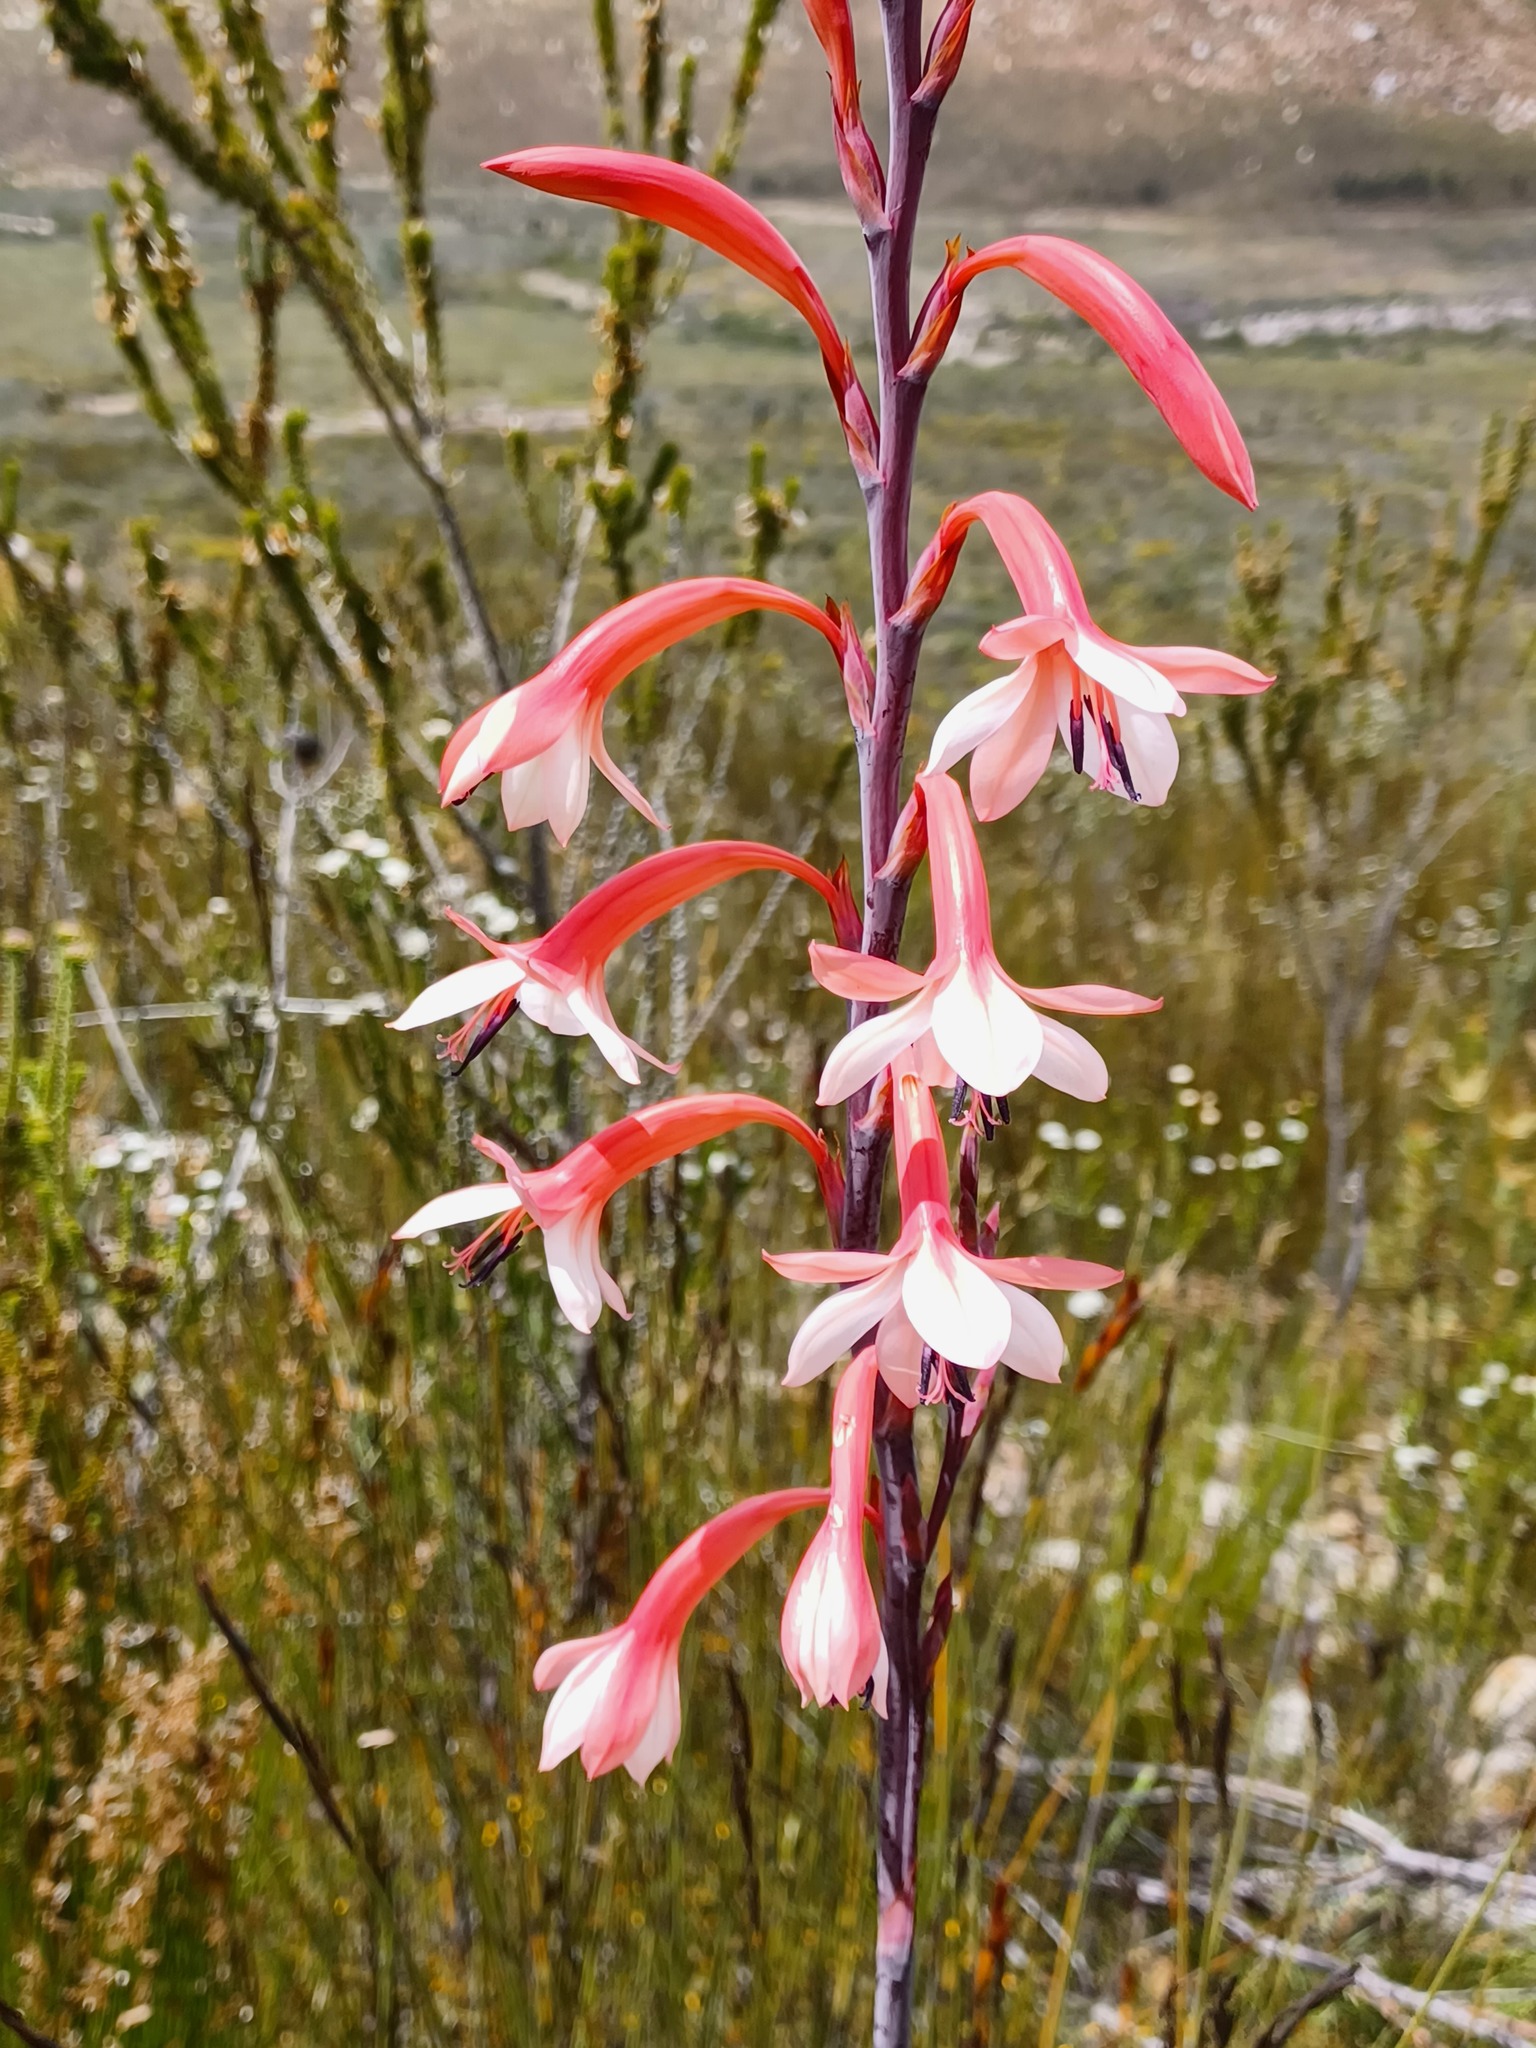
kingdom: Plantae
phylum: Tracheophyta
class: Liliopsida
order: Asparagales
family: Iridaceae
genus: Watsonia
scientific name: Watsonia fourcadei
